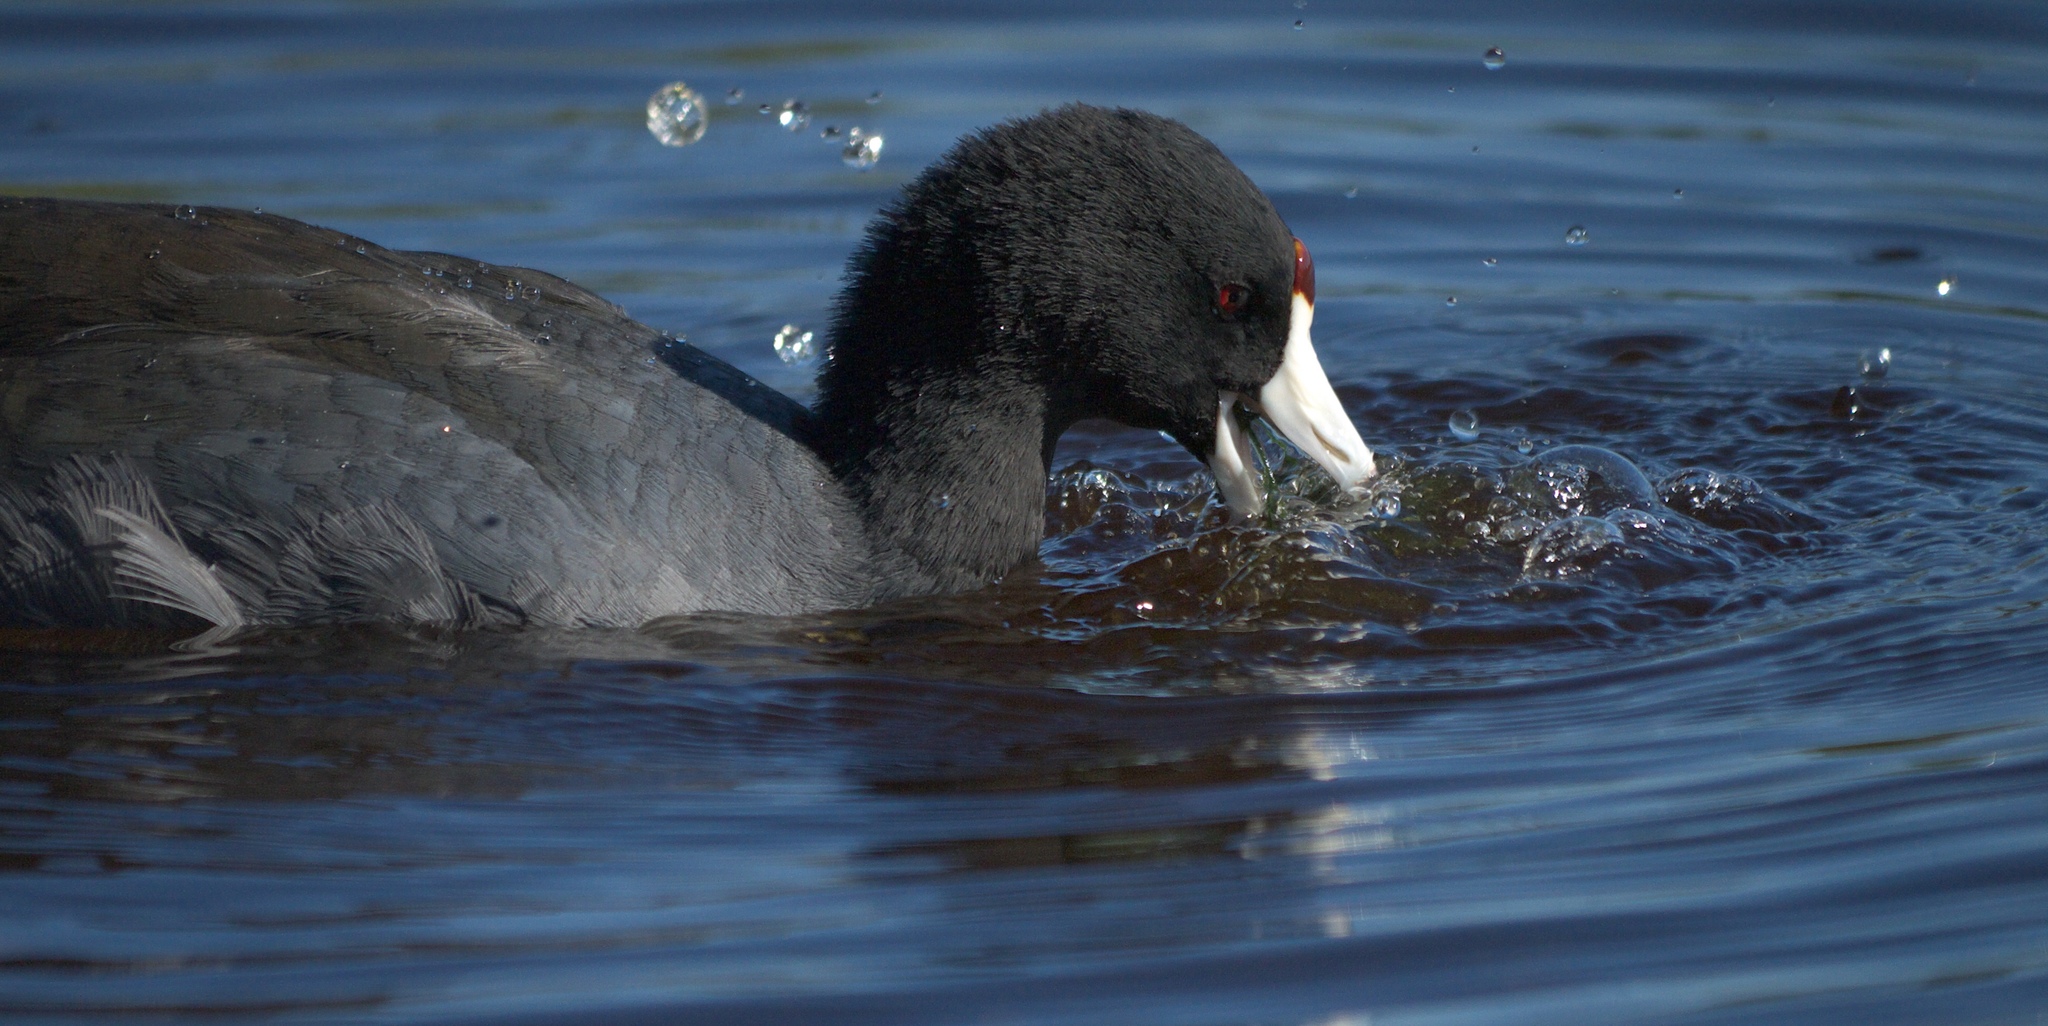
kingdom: Animalia
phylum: Chordata
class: Aves
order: Gruiformes
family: Rallidae
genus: Fulica
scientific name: Fulica americana
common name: American coot
